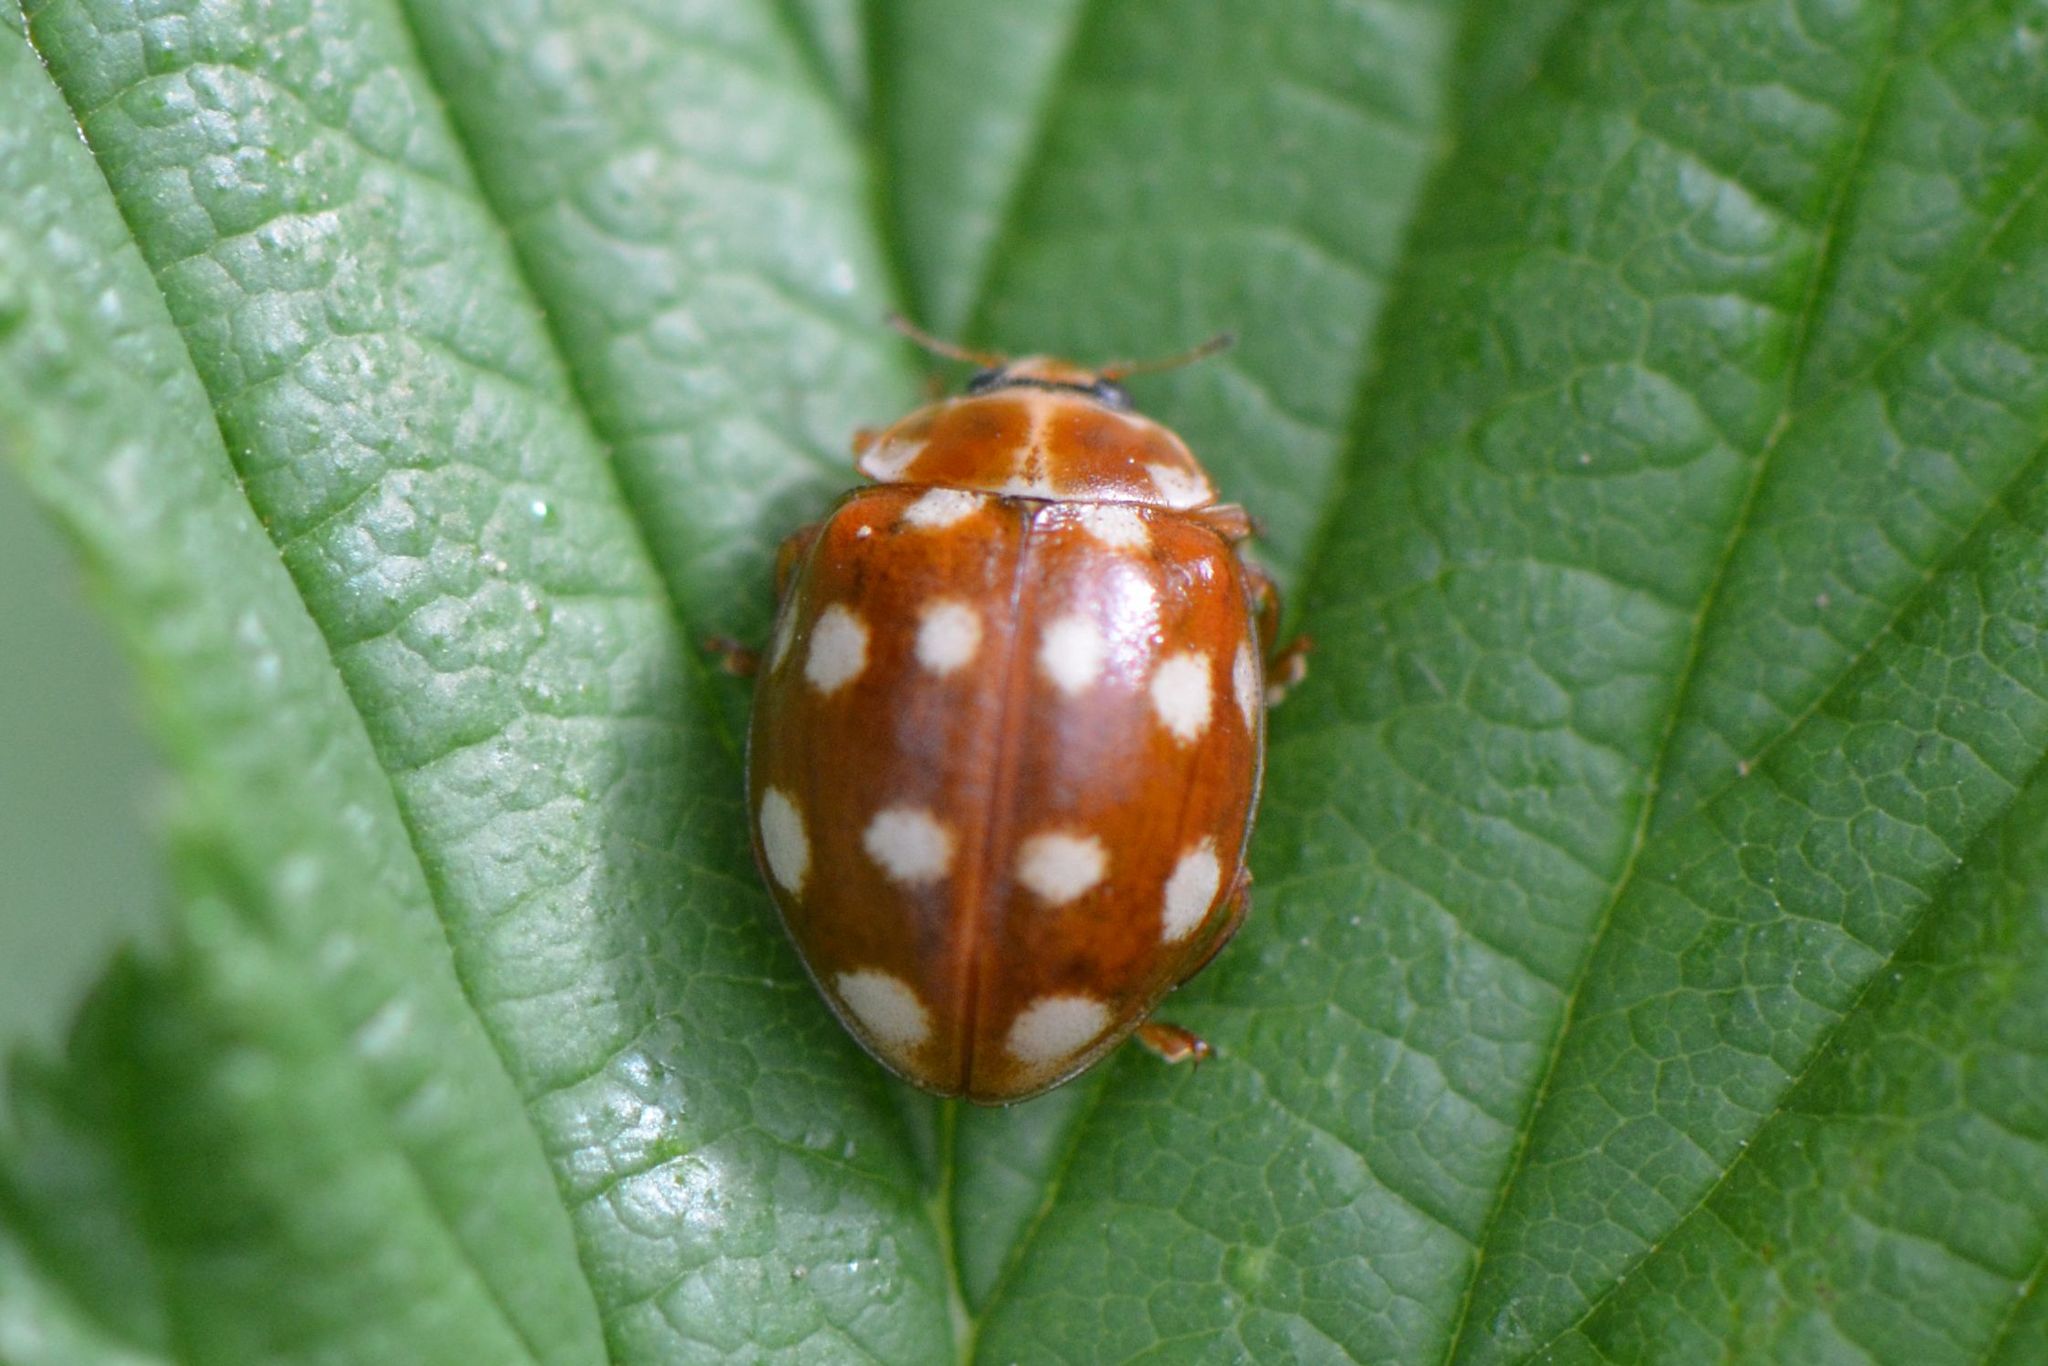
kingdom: Animalia
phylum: Arthropoda
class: Insecta
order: Coleoptera
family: Coccinellidae
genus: Calvia
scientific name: Calvia quatuordecimguttata
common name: Cream-spot ladybird
